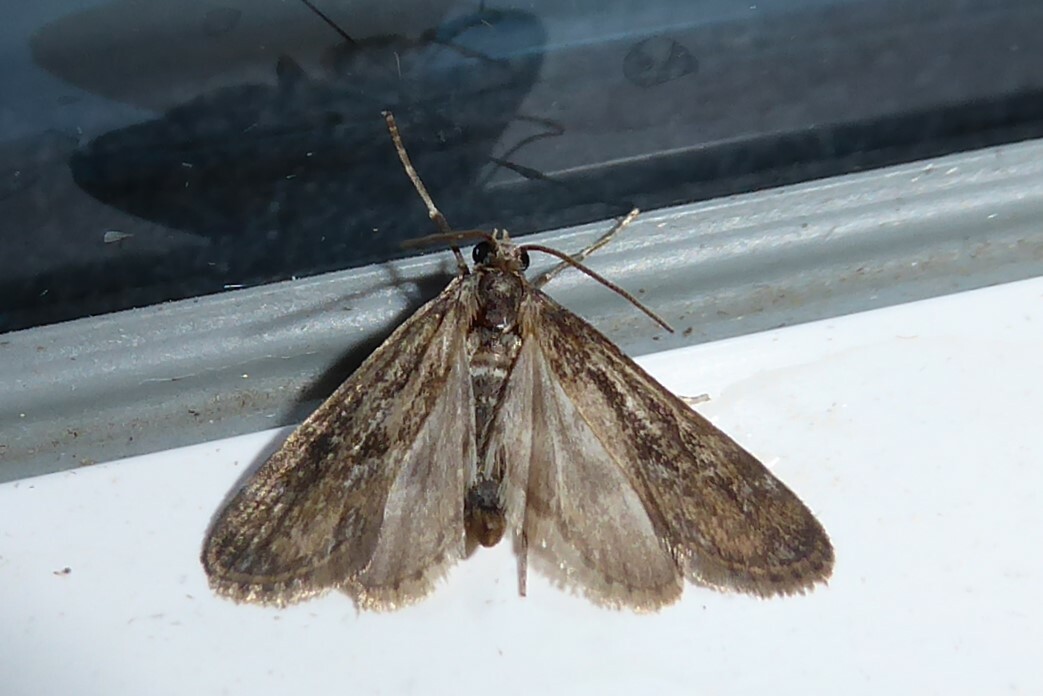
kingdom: Animalia
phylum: Arthropoda
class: Insecta
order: Lepidoptera
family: Crambidae
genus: Hygraula
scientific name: Hygraula nitens
